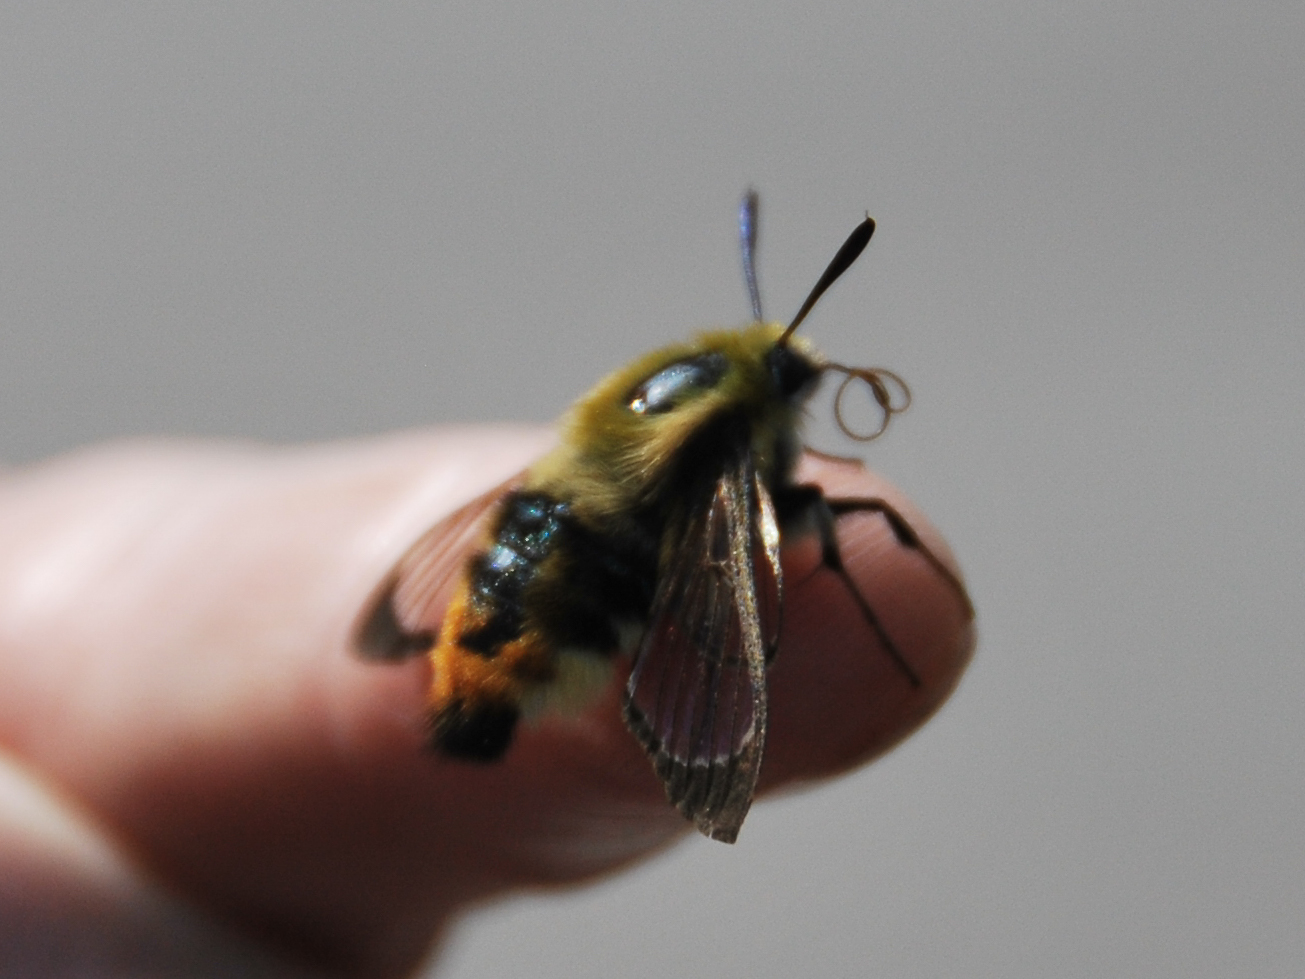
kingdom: Animalia
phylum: Arthropoda
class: Insecta
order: Lepidoptera
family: Sphingidae
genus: Hemaris
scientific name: Hemaris tityus
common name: Narrow-bordered bee hawk-moth
